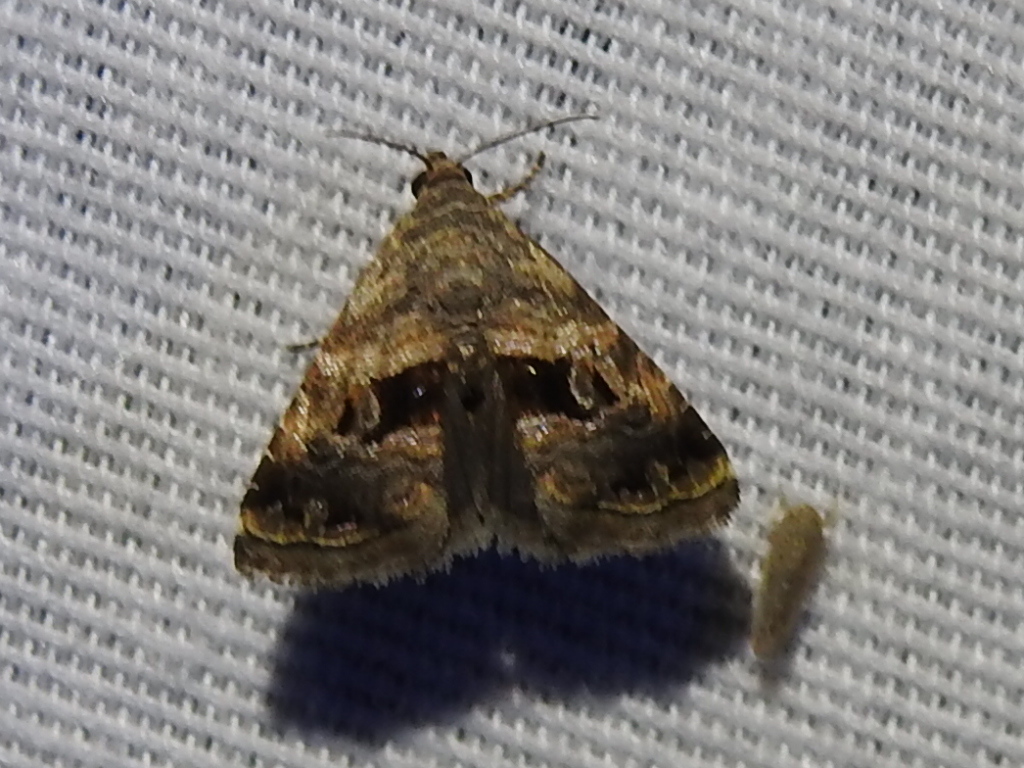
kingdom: Animalia
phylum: Arthropoda
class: Insecta
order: Lepidoptera
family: Noctuidae
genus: Tripudia
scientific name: Tripudia quadrifera
